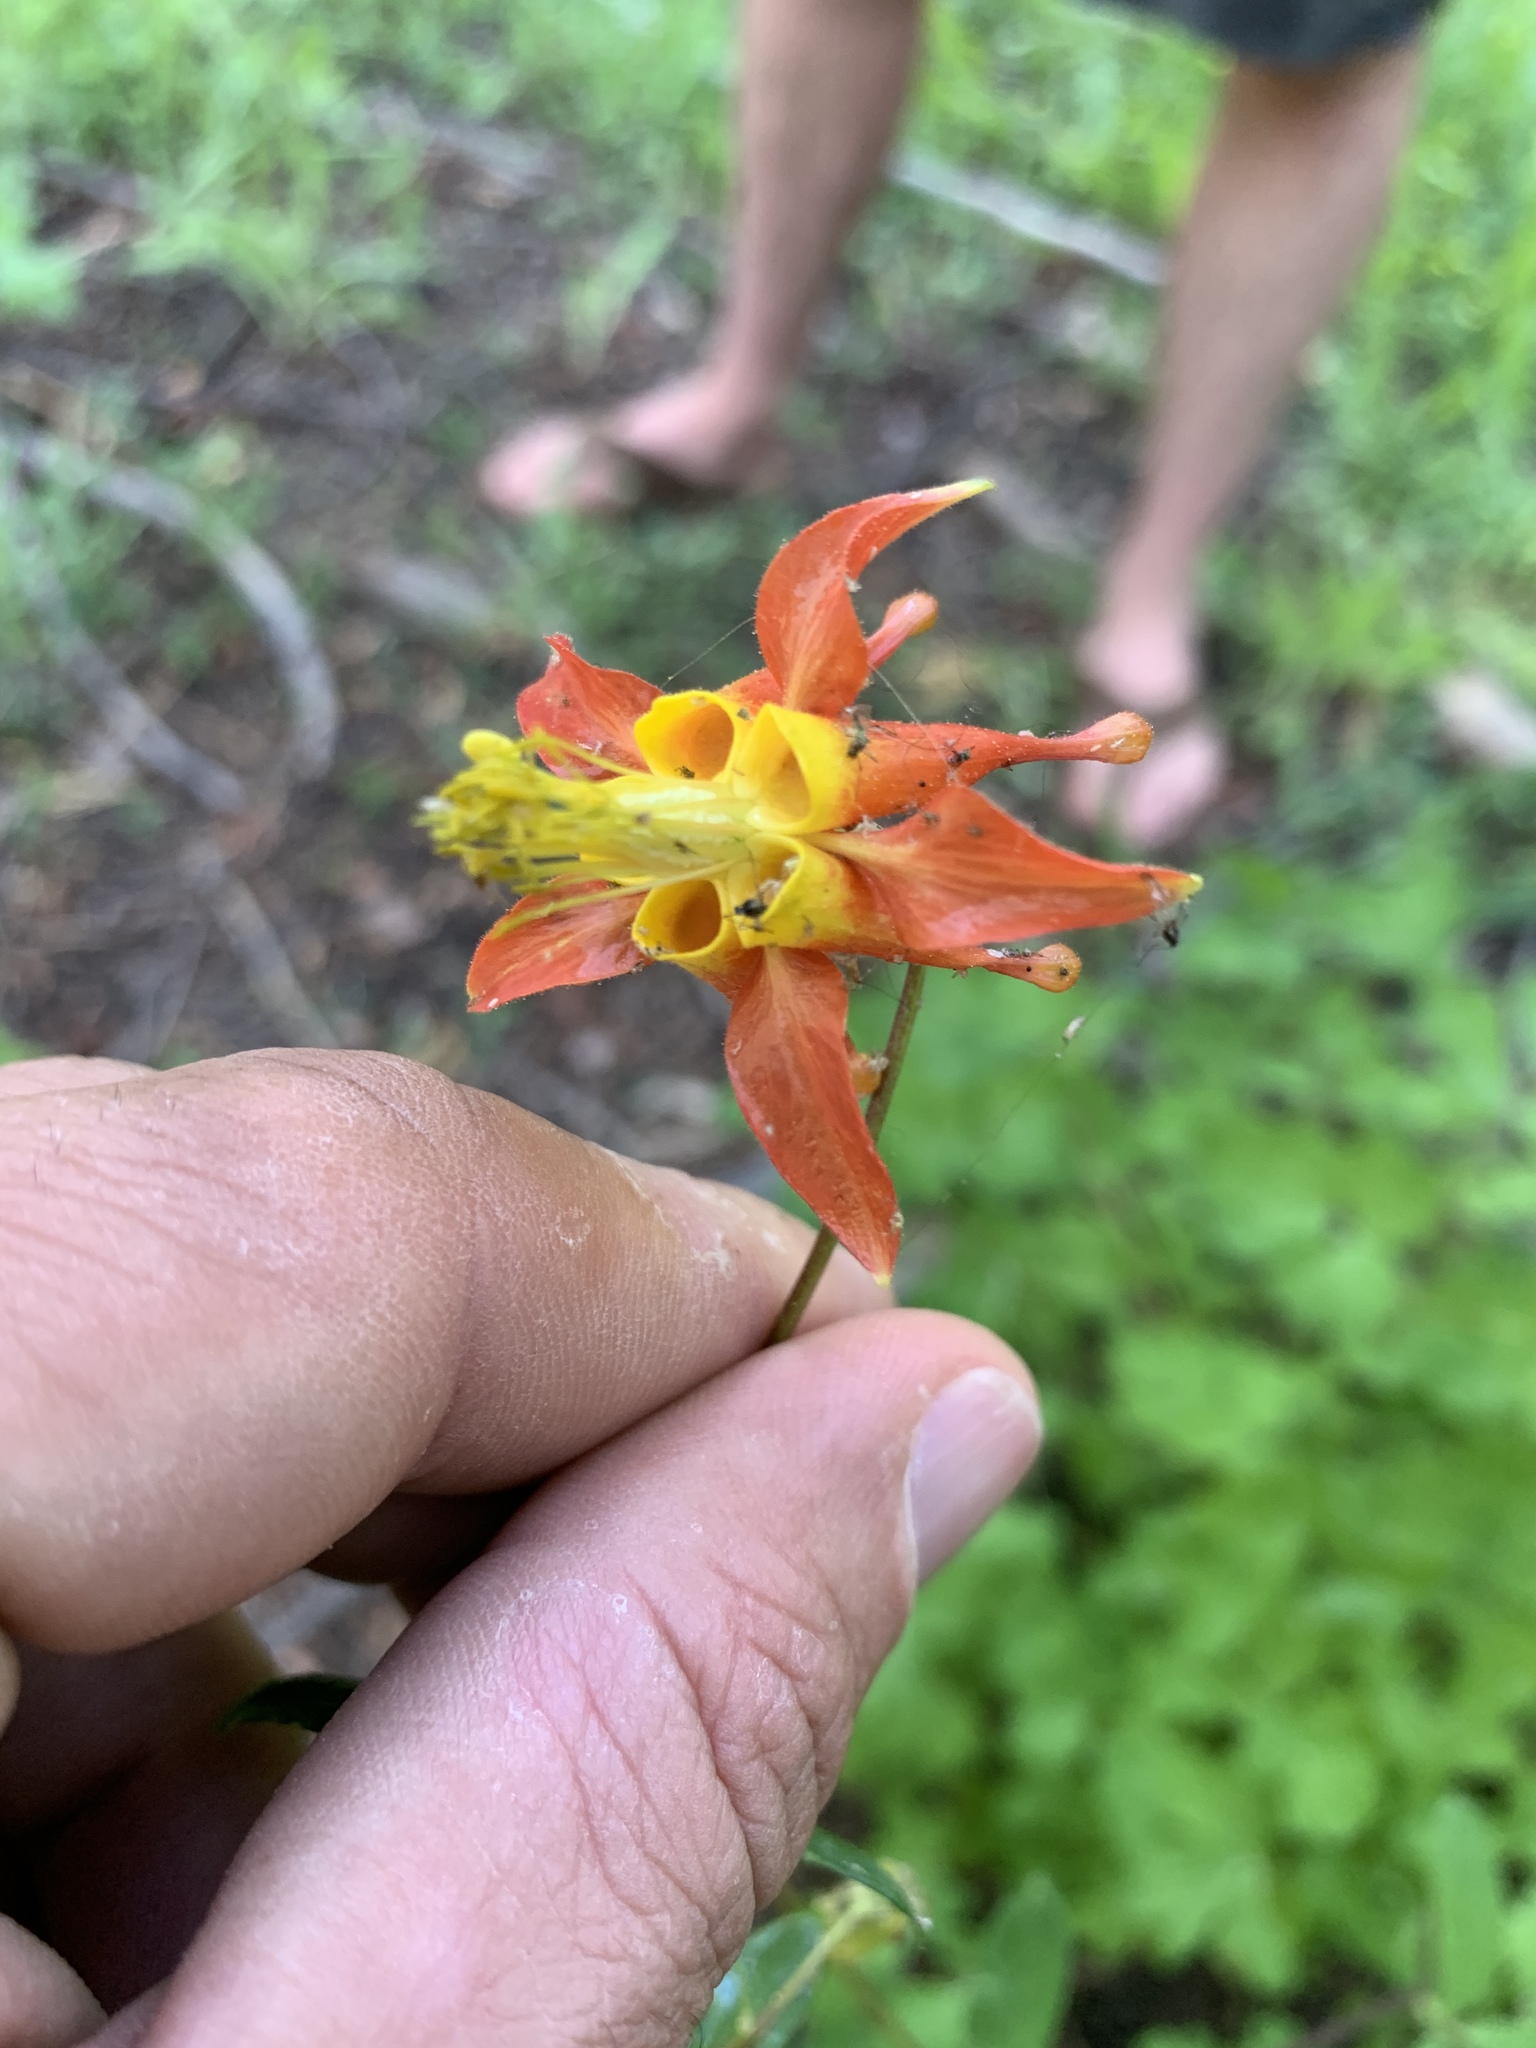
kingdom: Plantae
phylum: Tracheophyta
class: Magnoliopsida
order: Ranunculales
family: Ranunculaceae
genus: Aquilegia
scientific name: Aquilegia formosa
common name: Sitka columbine
